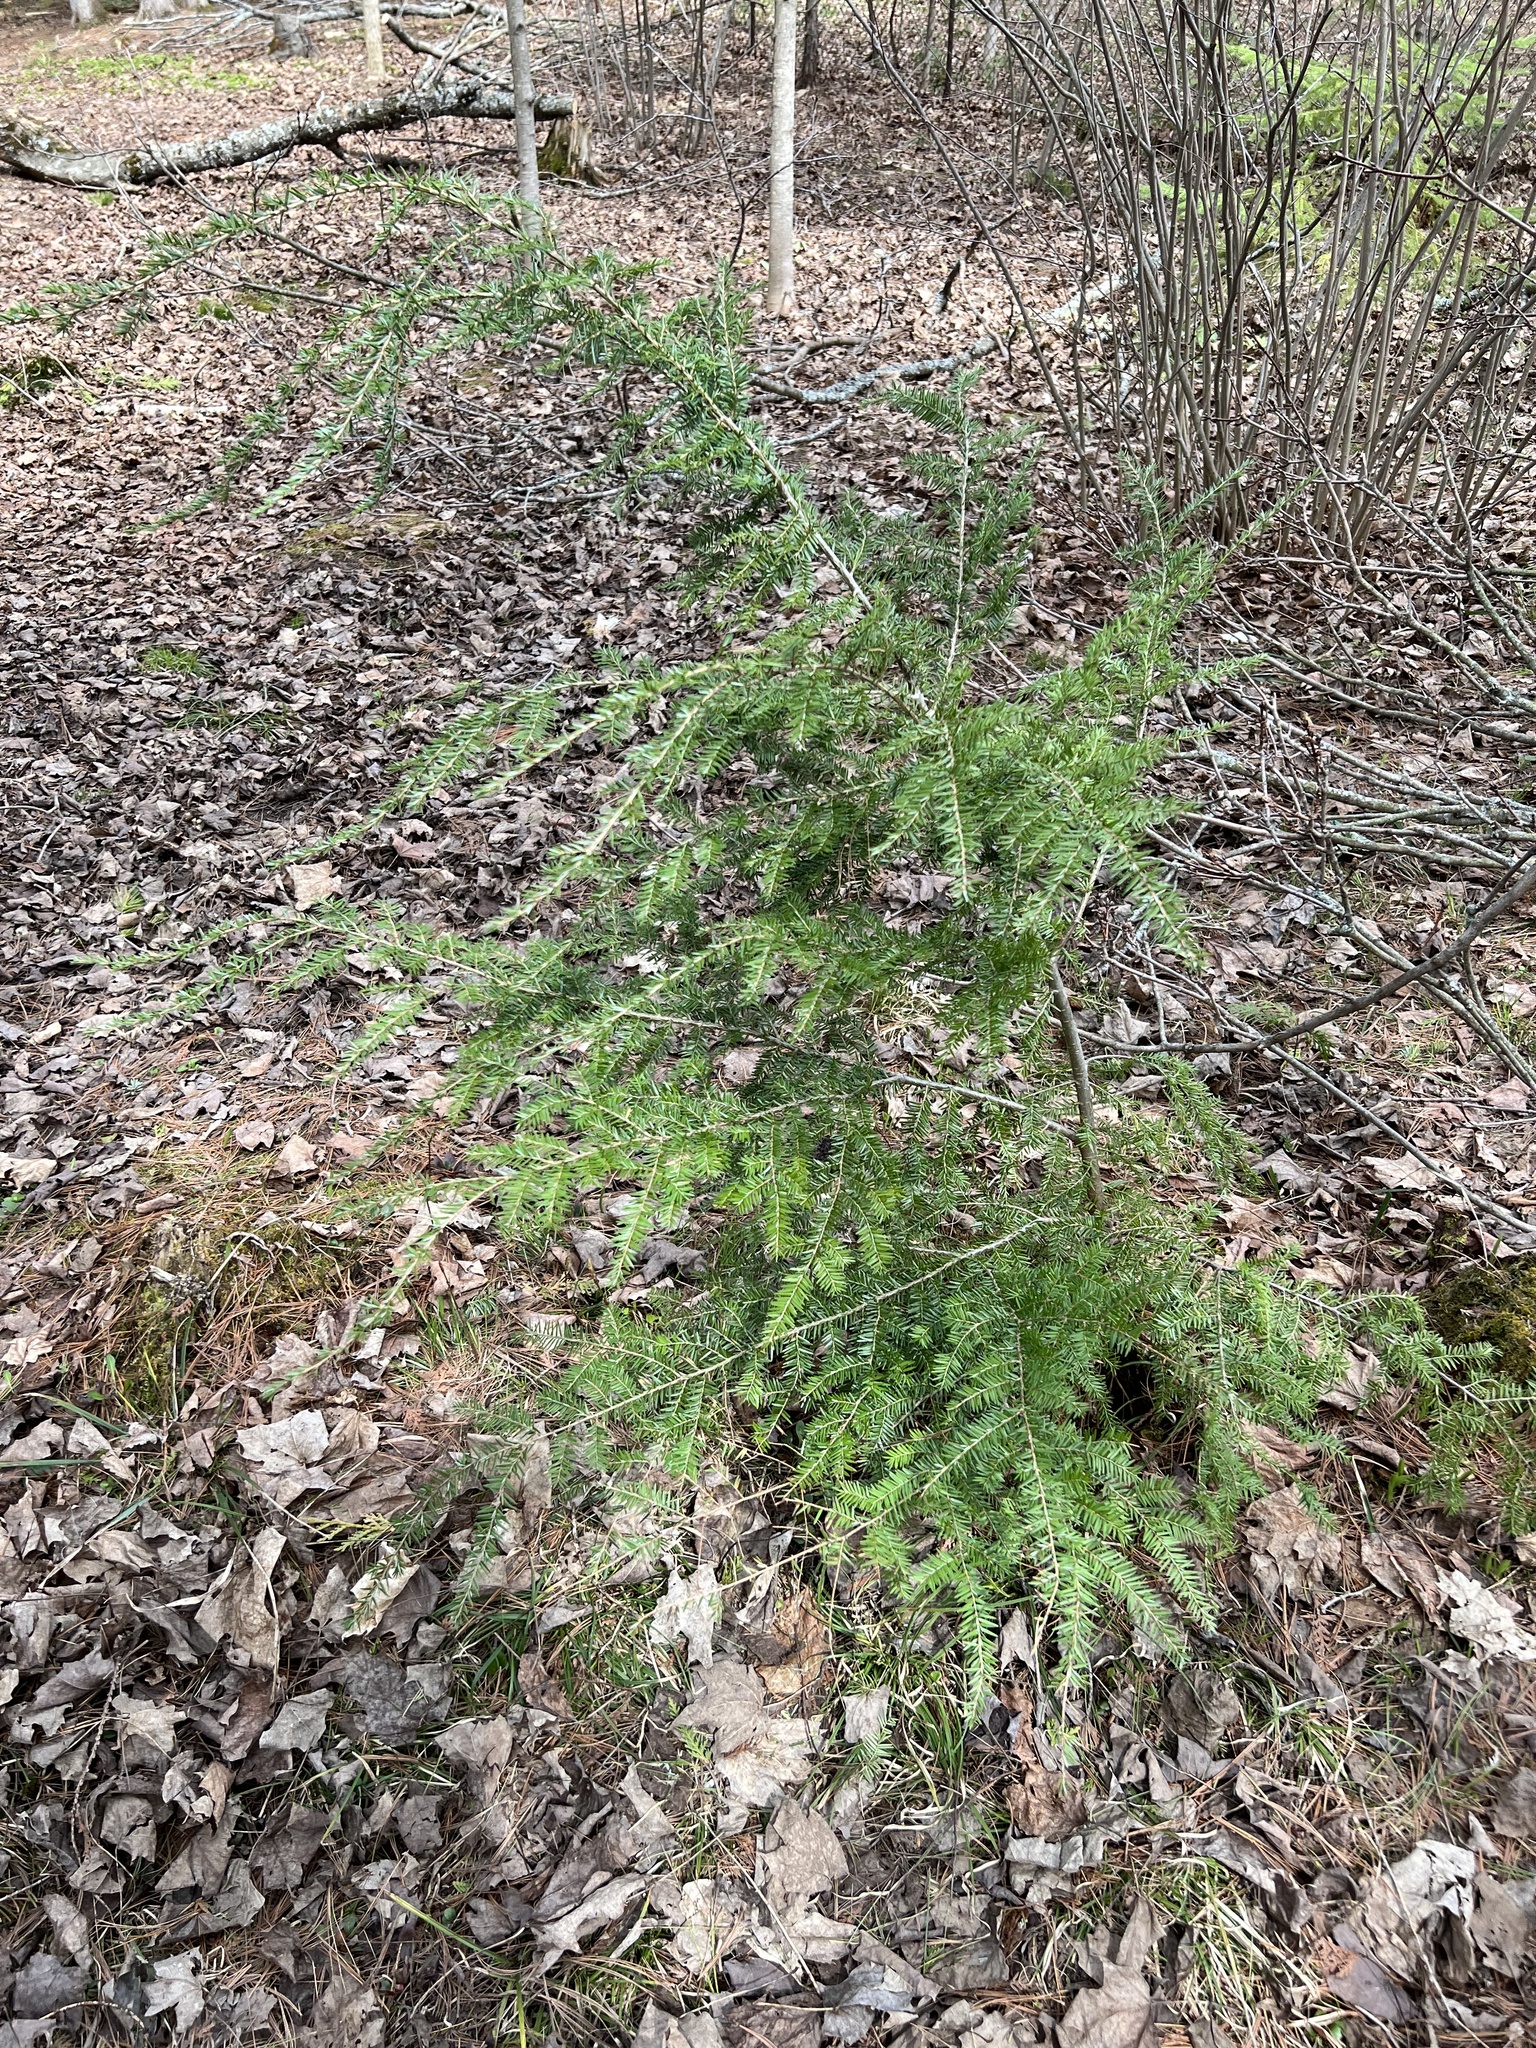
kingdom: Plantae
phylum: Tracheophyta
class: Pinopsida
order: Pinales
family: Pinaceae
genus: Tsuga
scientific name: Tsuga canadensis
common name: Eastern hemlock
